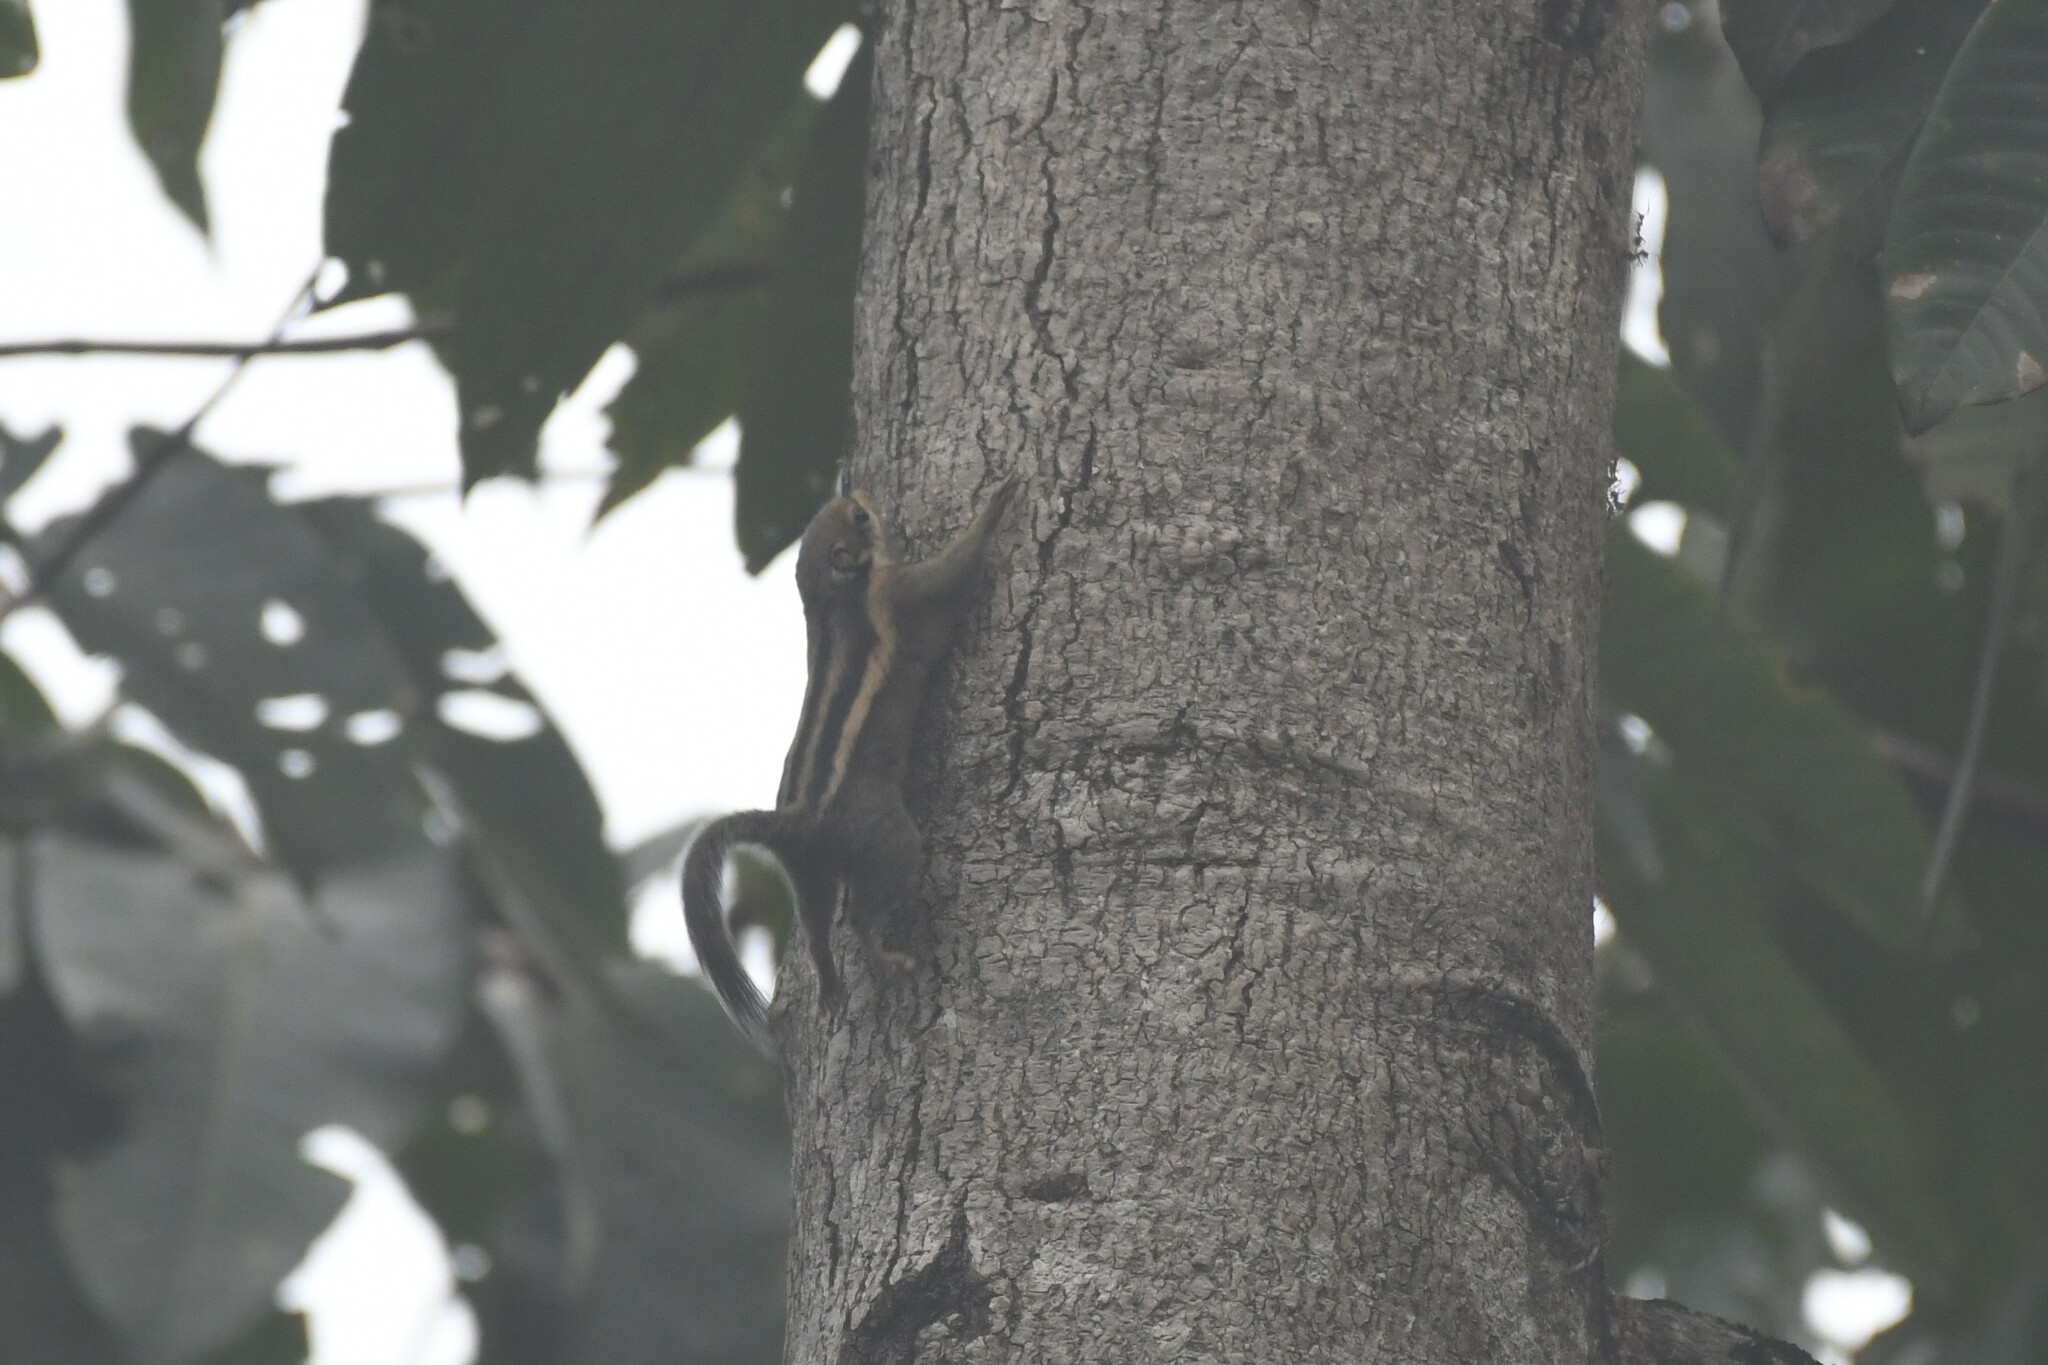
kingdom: Animalia
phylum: Chordata
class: Mammalia
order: Rodentia
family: Sciuridae
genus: Tamiops
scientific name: Tamiops mcclellandii
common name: Himalayan striped squirrel
